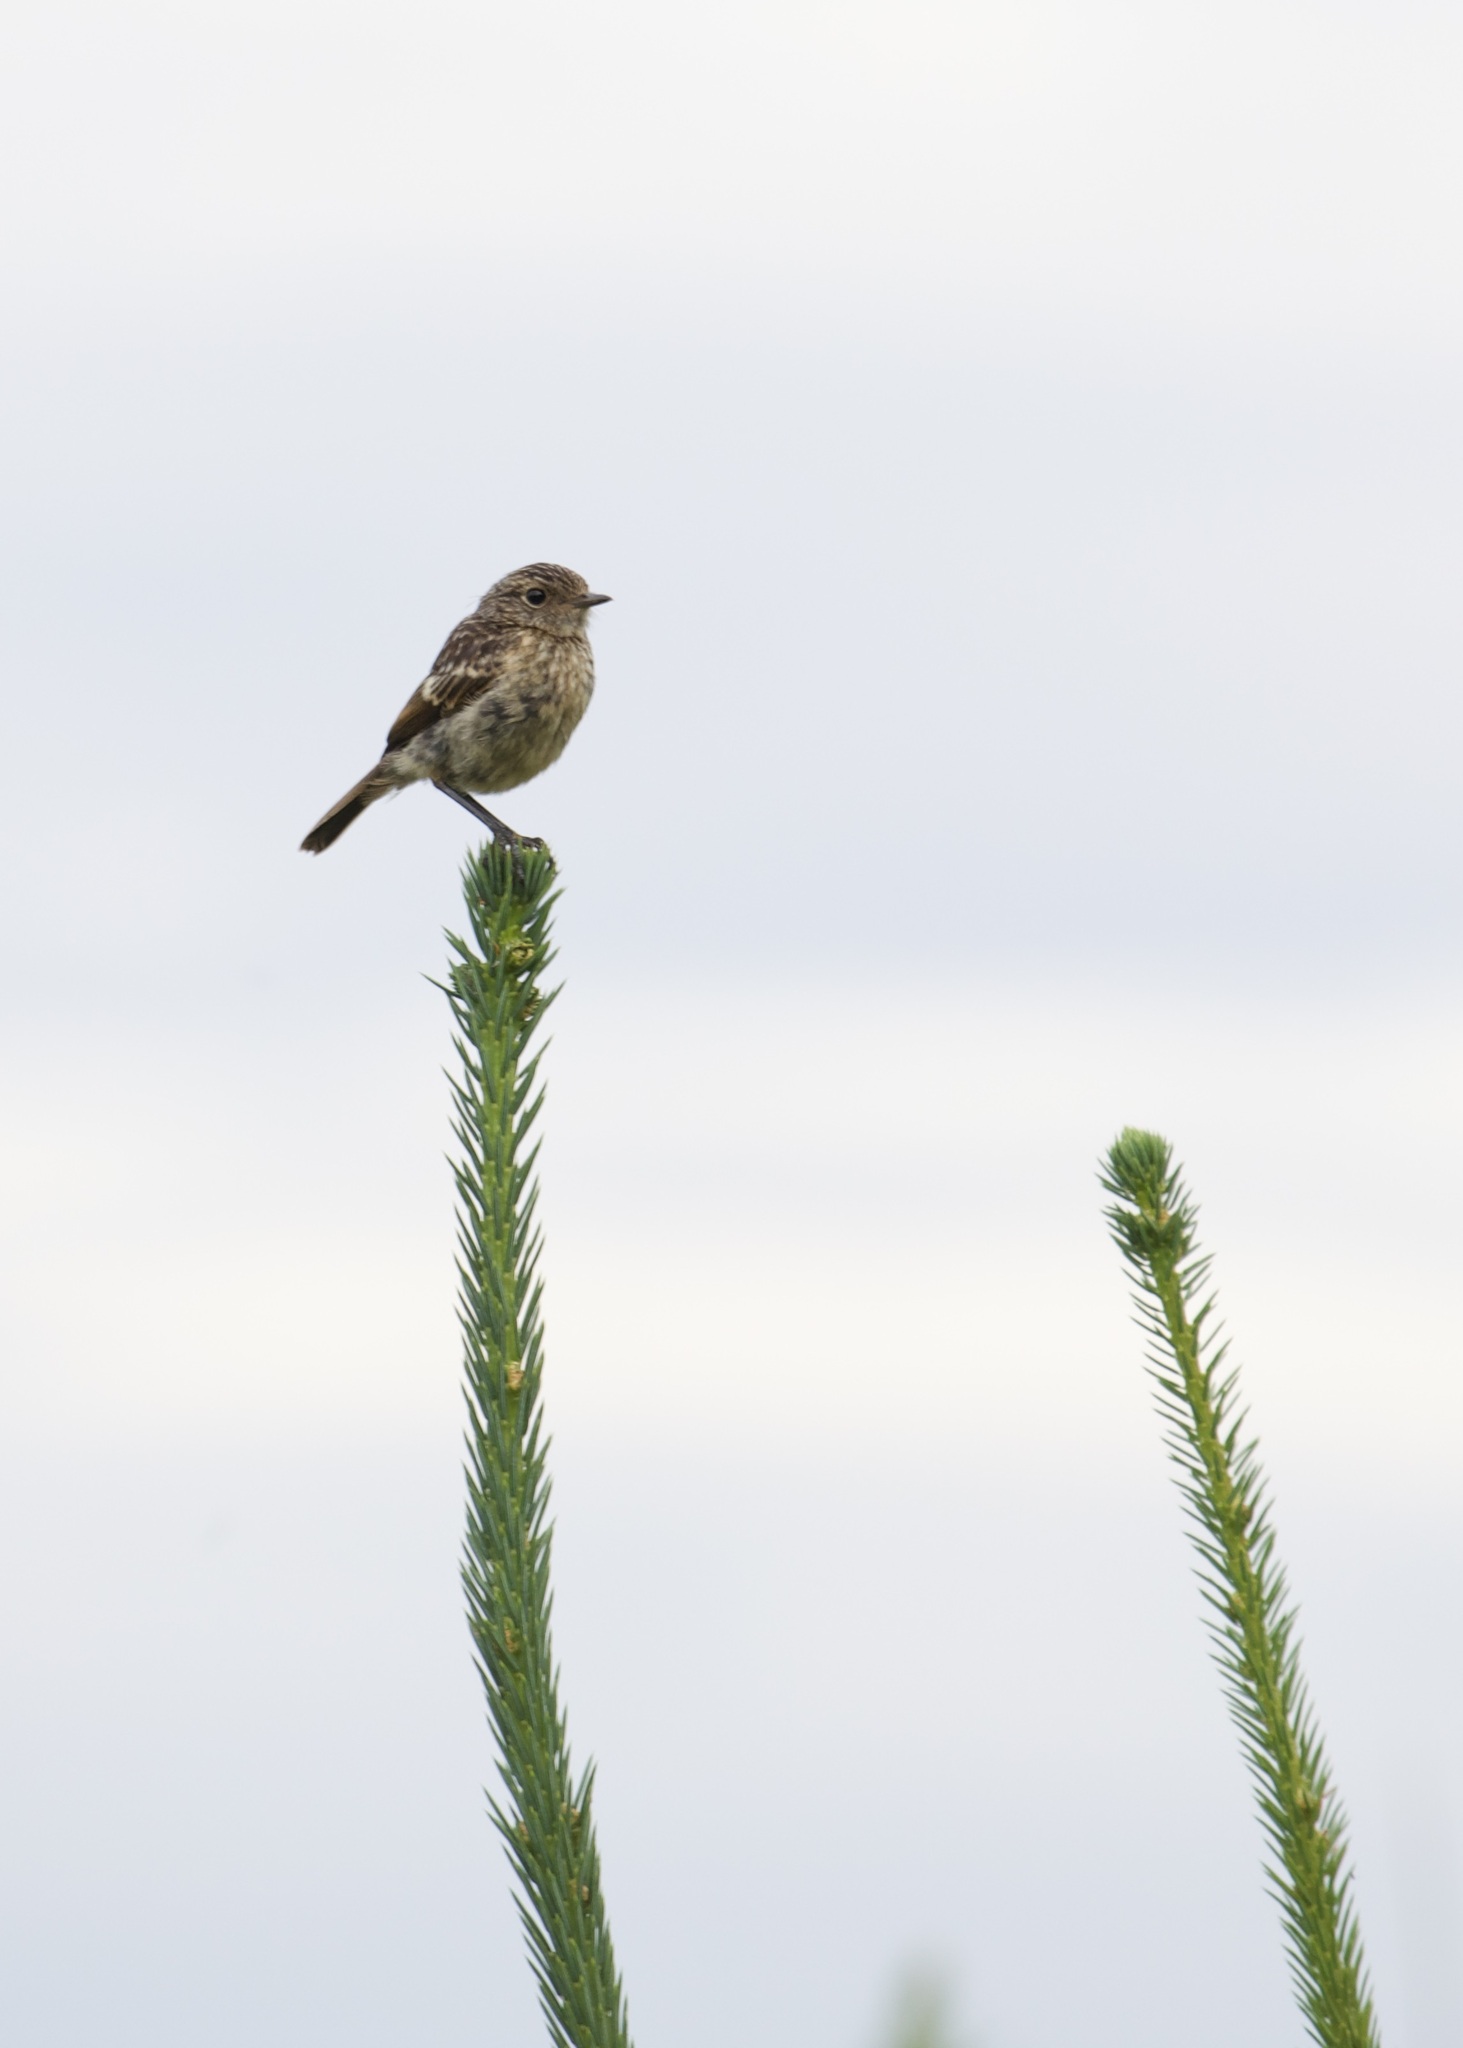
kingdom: Animalia
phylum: Chordata
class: Aves
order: Passeriformes
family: Muscicapidae
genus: Saxicola
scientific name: Saxicola rubicola
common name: European stonechat
